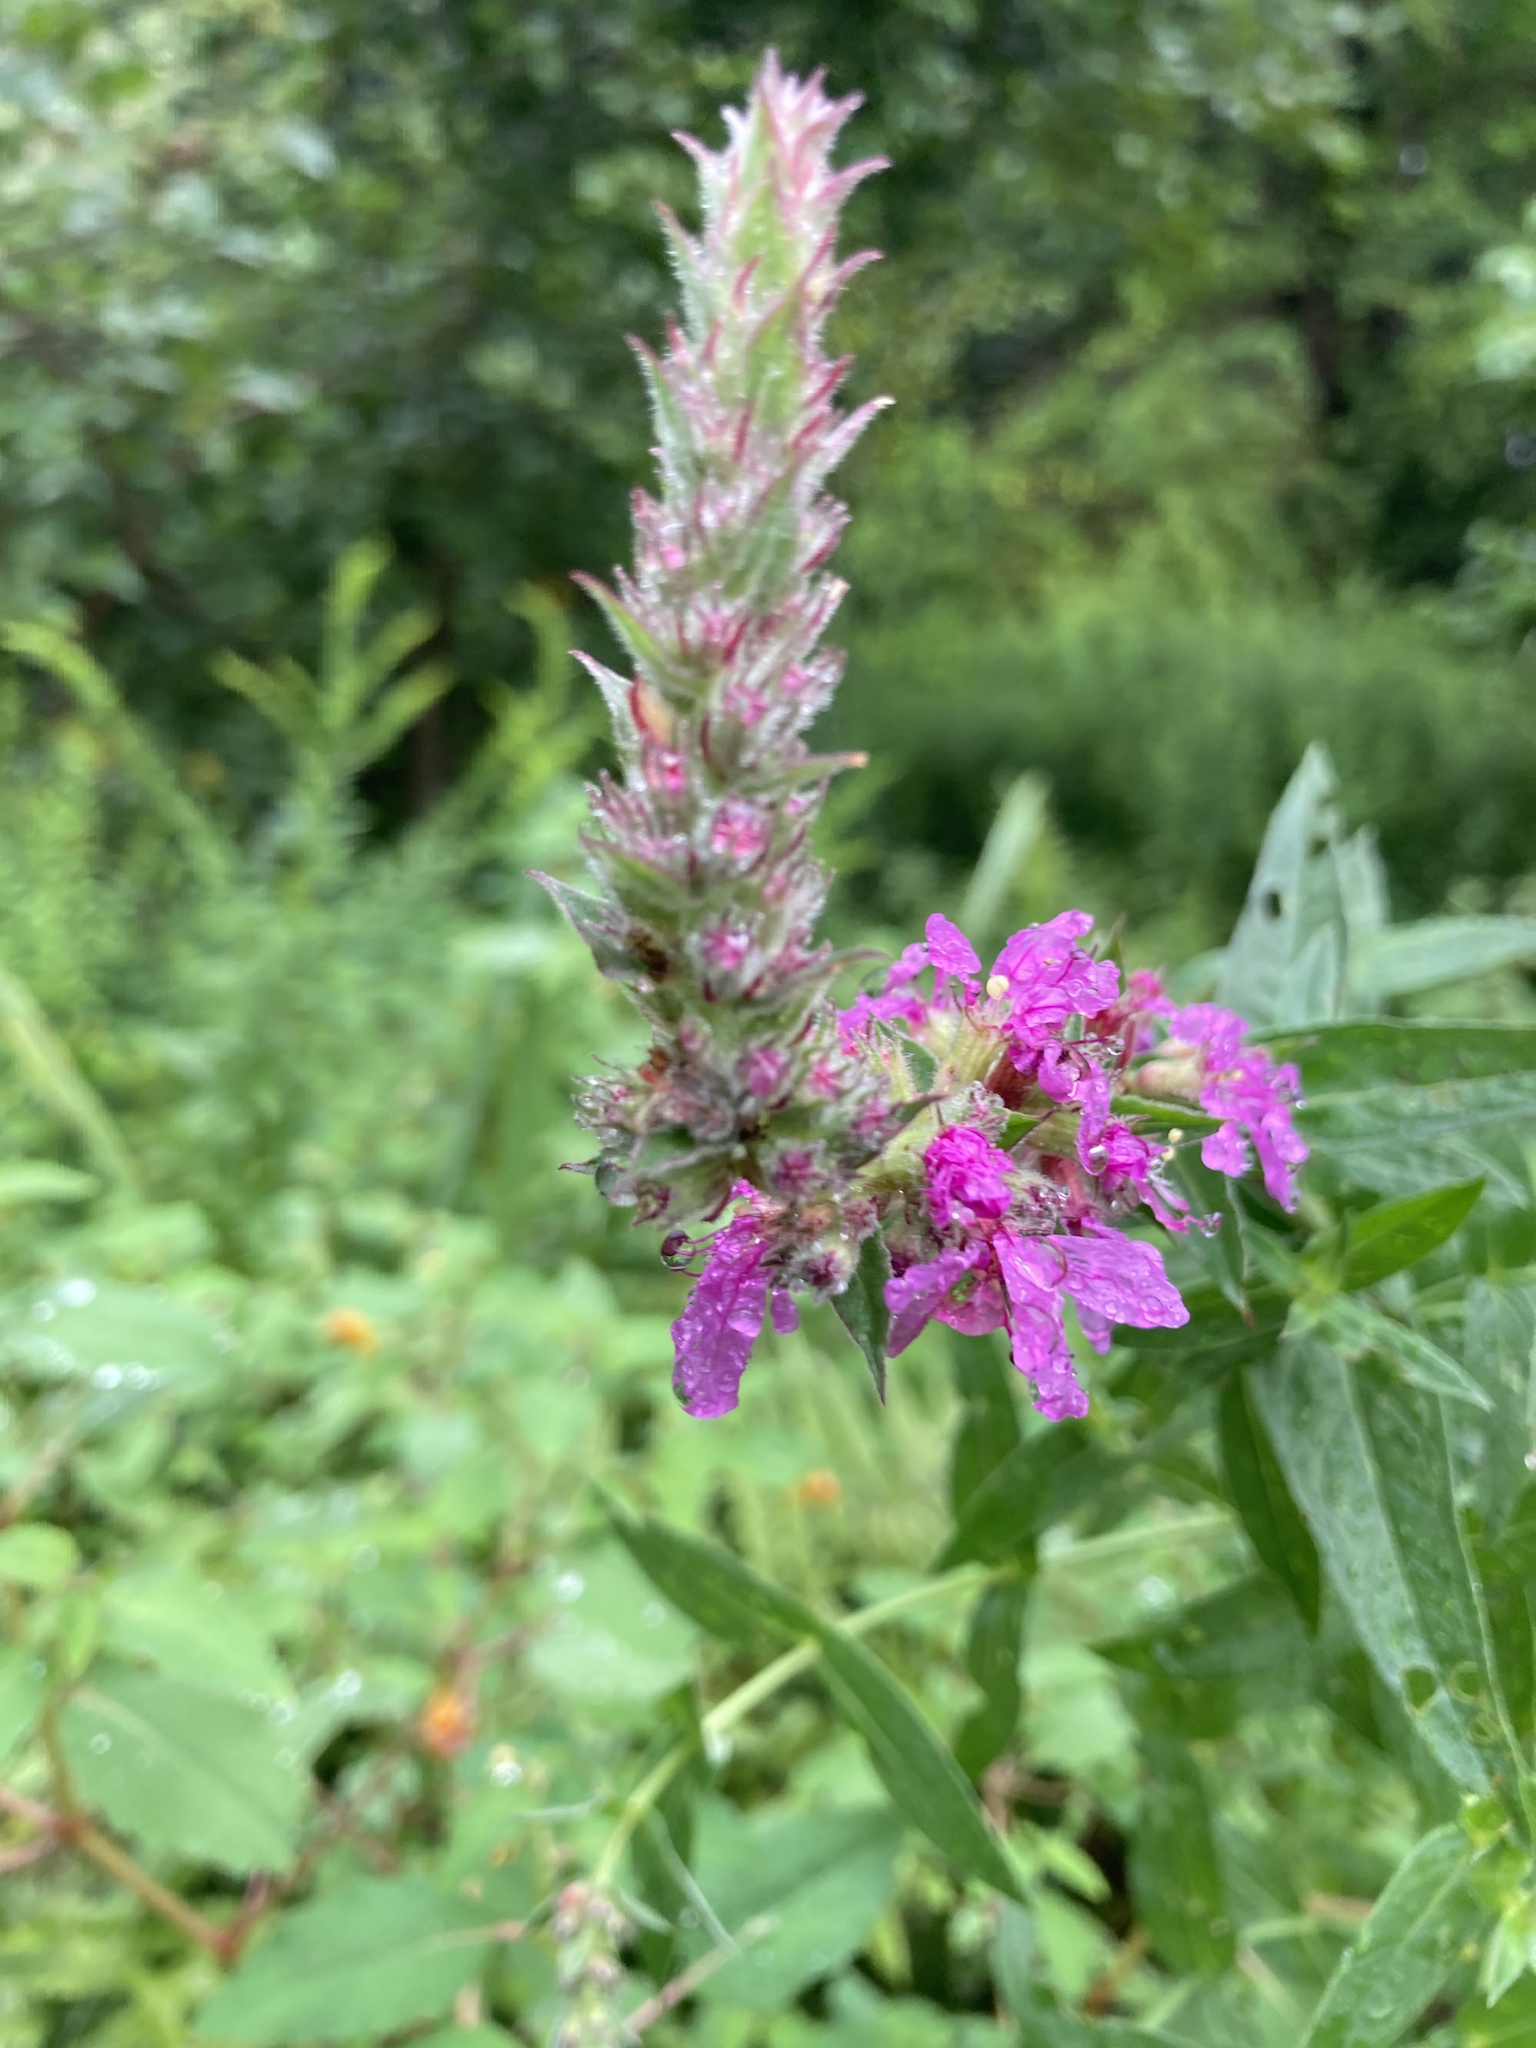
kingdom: Plantae
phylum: Tracheophyta
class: Magnoliopsida
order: Myrtales
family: Lythraceae
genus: Lythrum
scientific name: Lythrum salicaria
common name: Purple loosestrife
